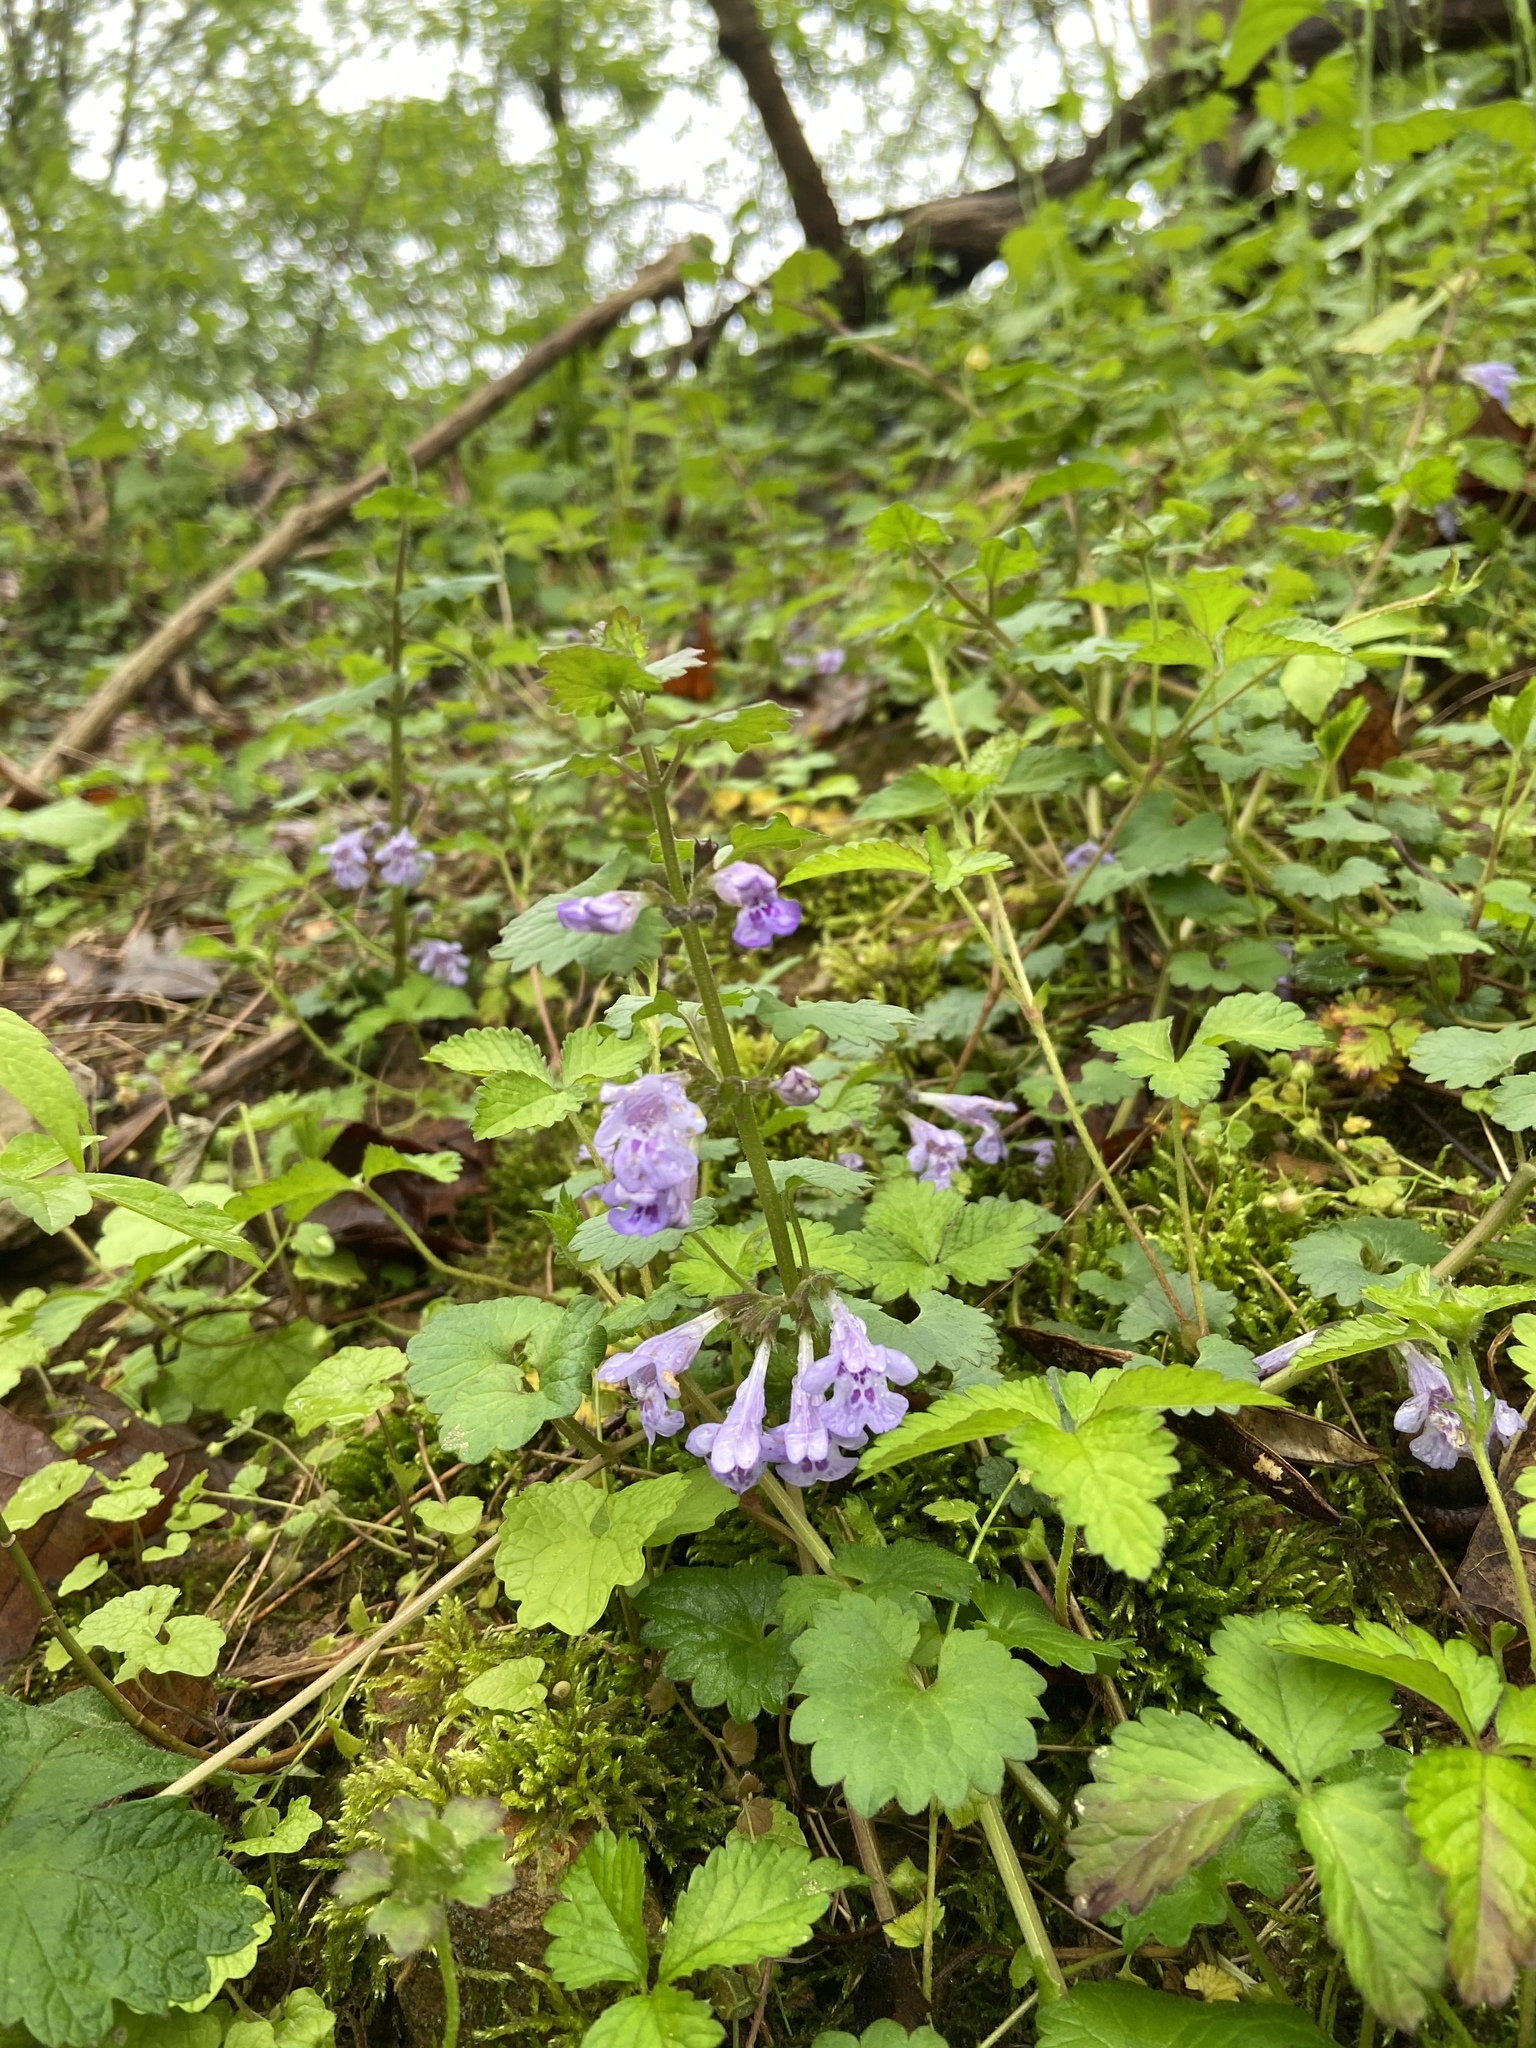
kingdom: Plantae
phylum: Tracheophyta
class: Magnoliopsida
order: Lamiales
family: Lamiaceae
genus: Glechoma
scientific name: Glechoma hederacea
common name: Ground ivy
